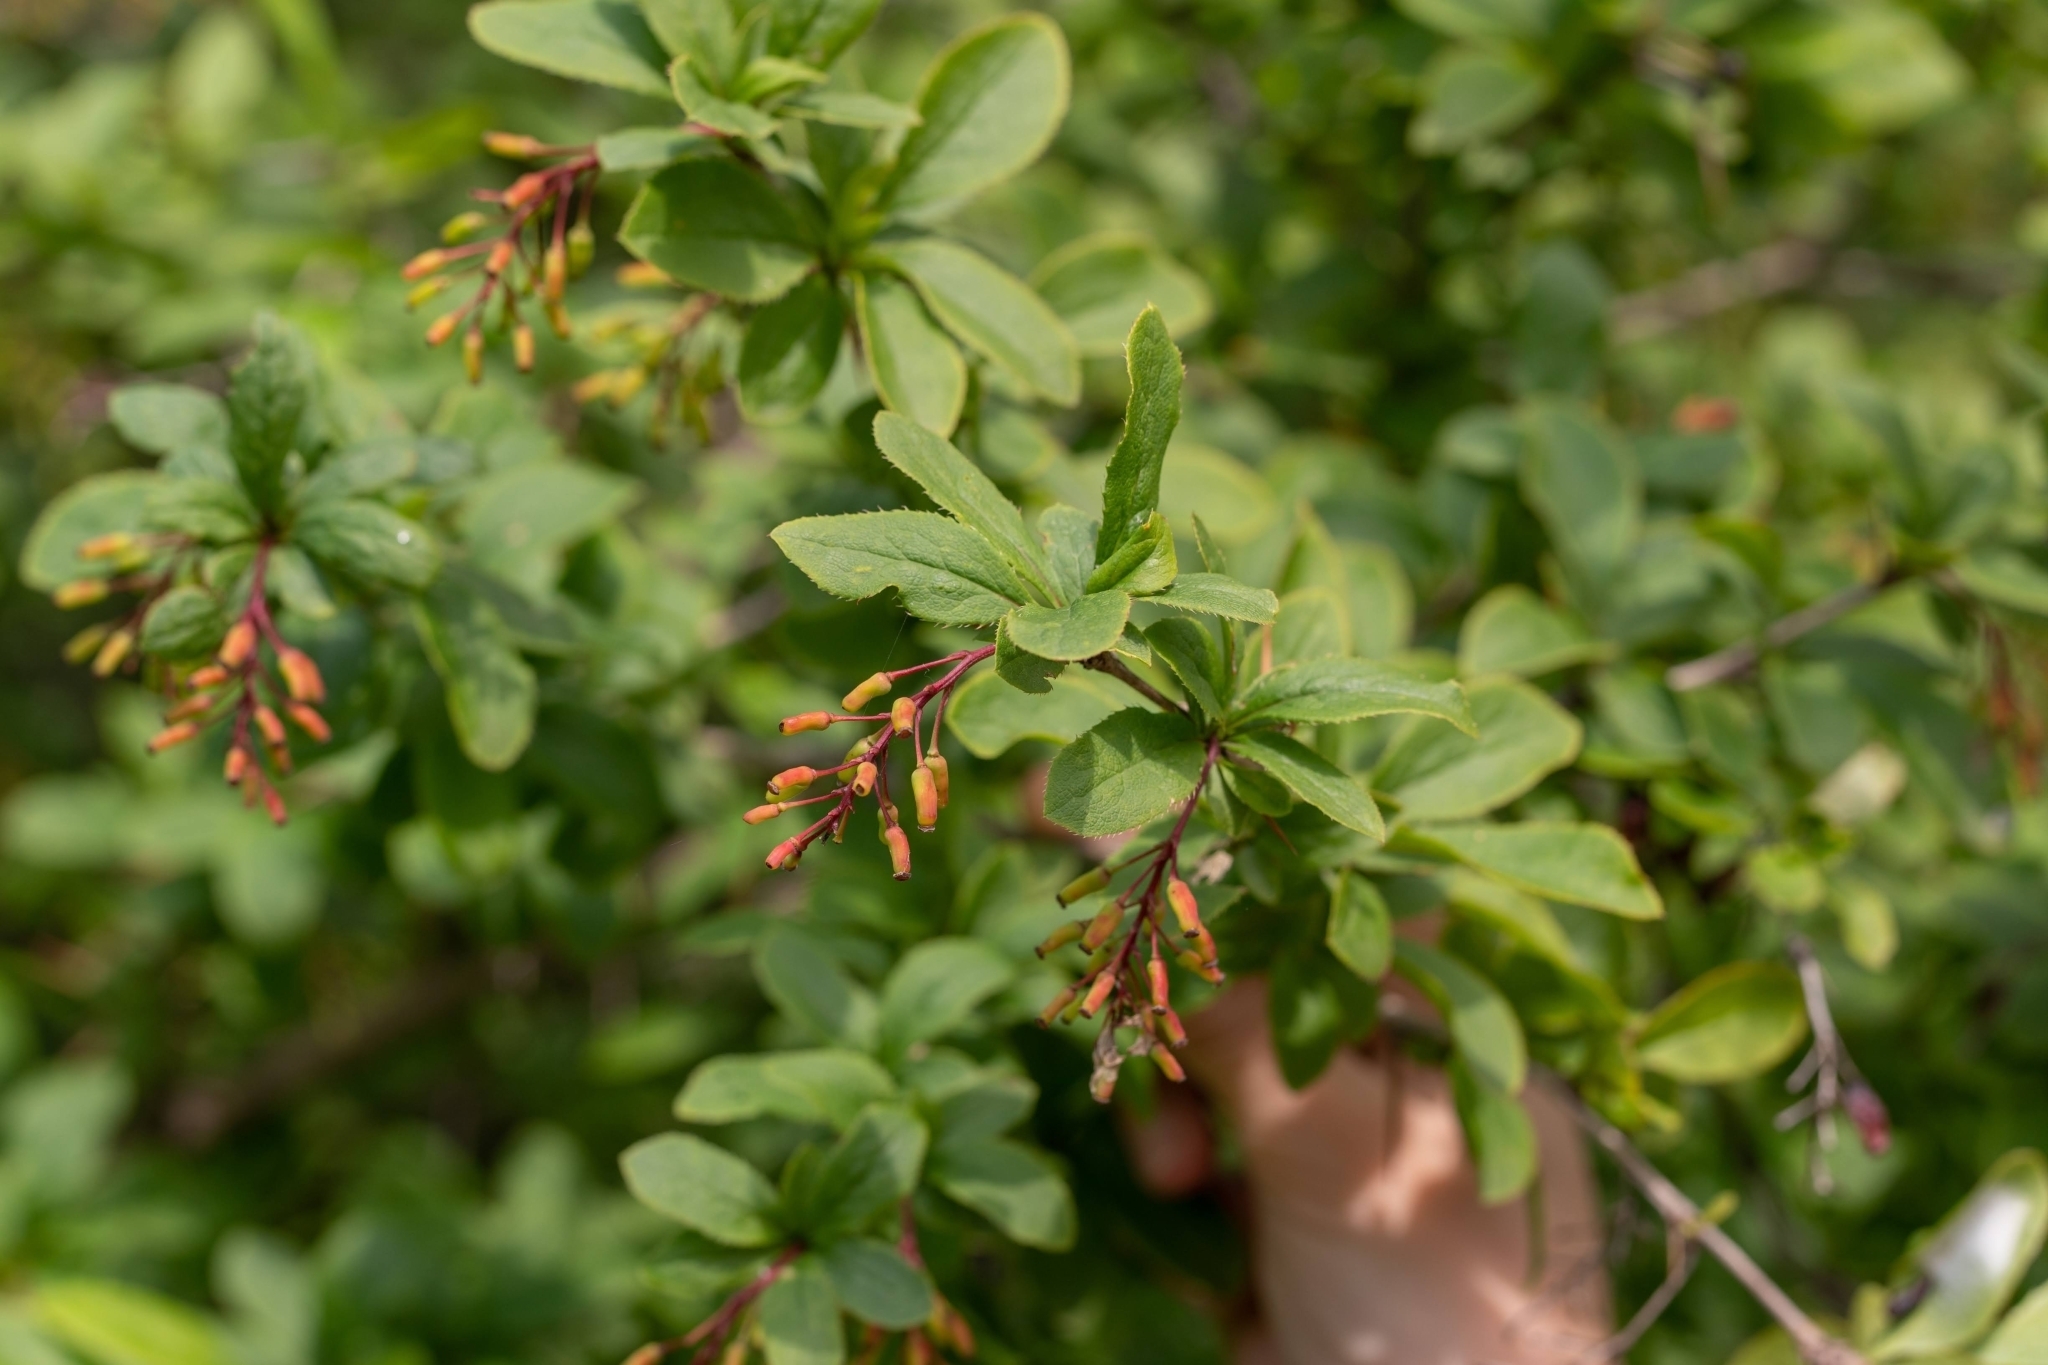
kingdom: Plantae
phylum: Tracheophyta
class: Magnoliopsida
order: Ranunculales
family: Berberidaceae
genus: Berberis
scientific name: Berberis vulgaris
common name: Barberry
